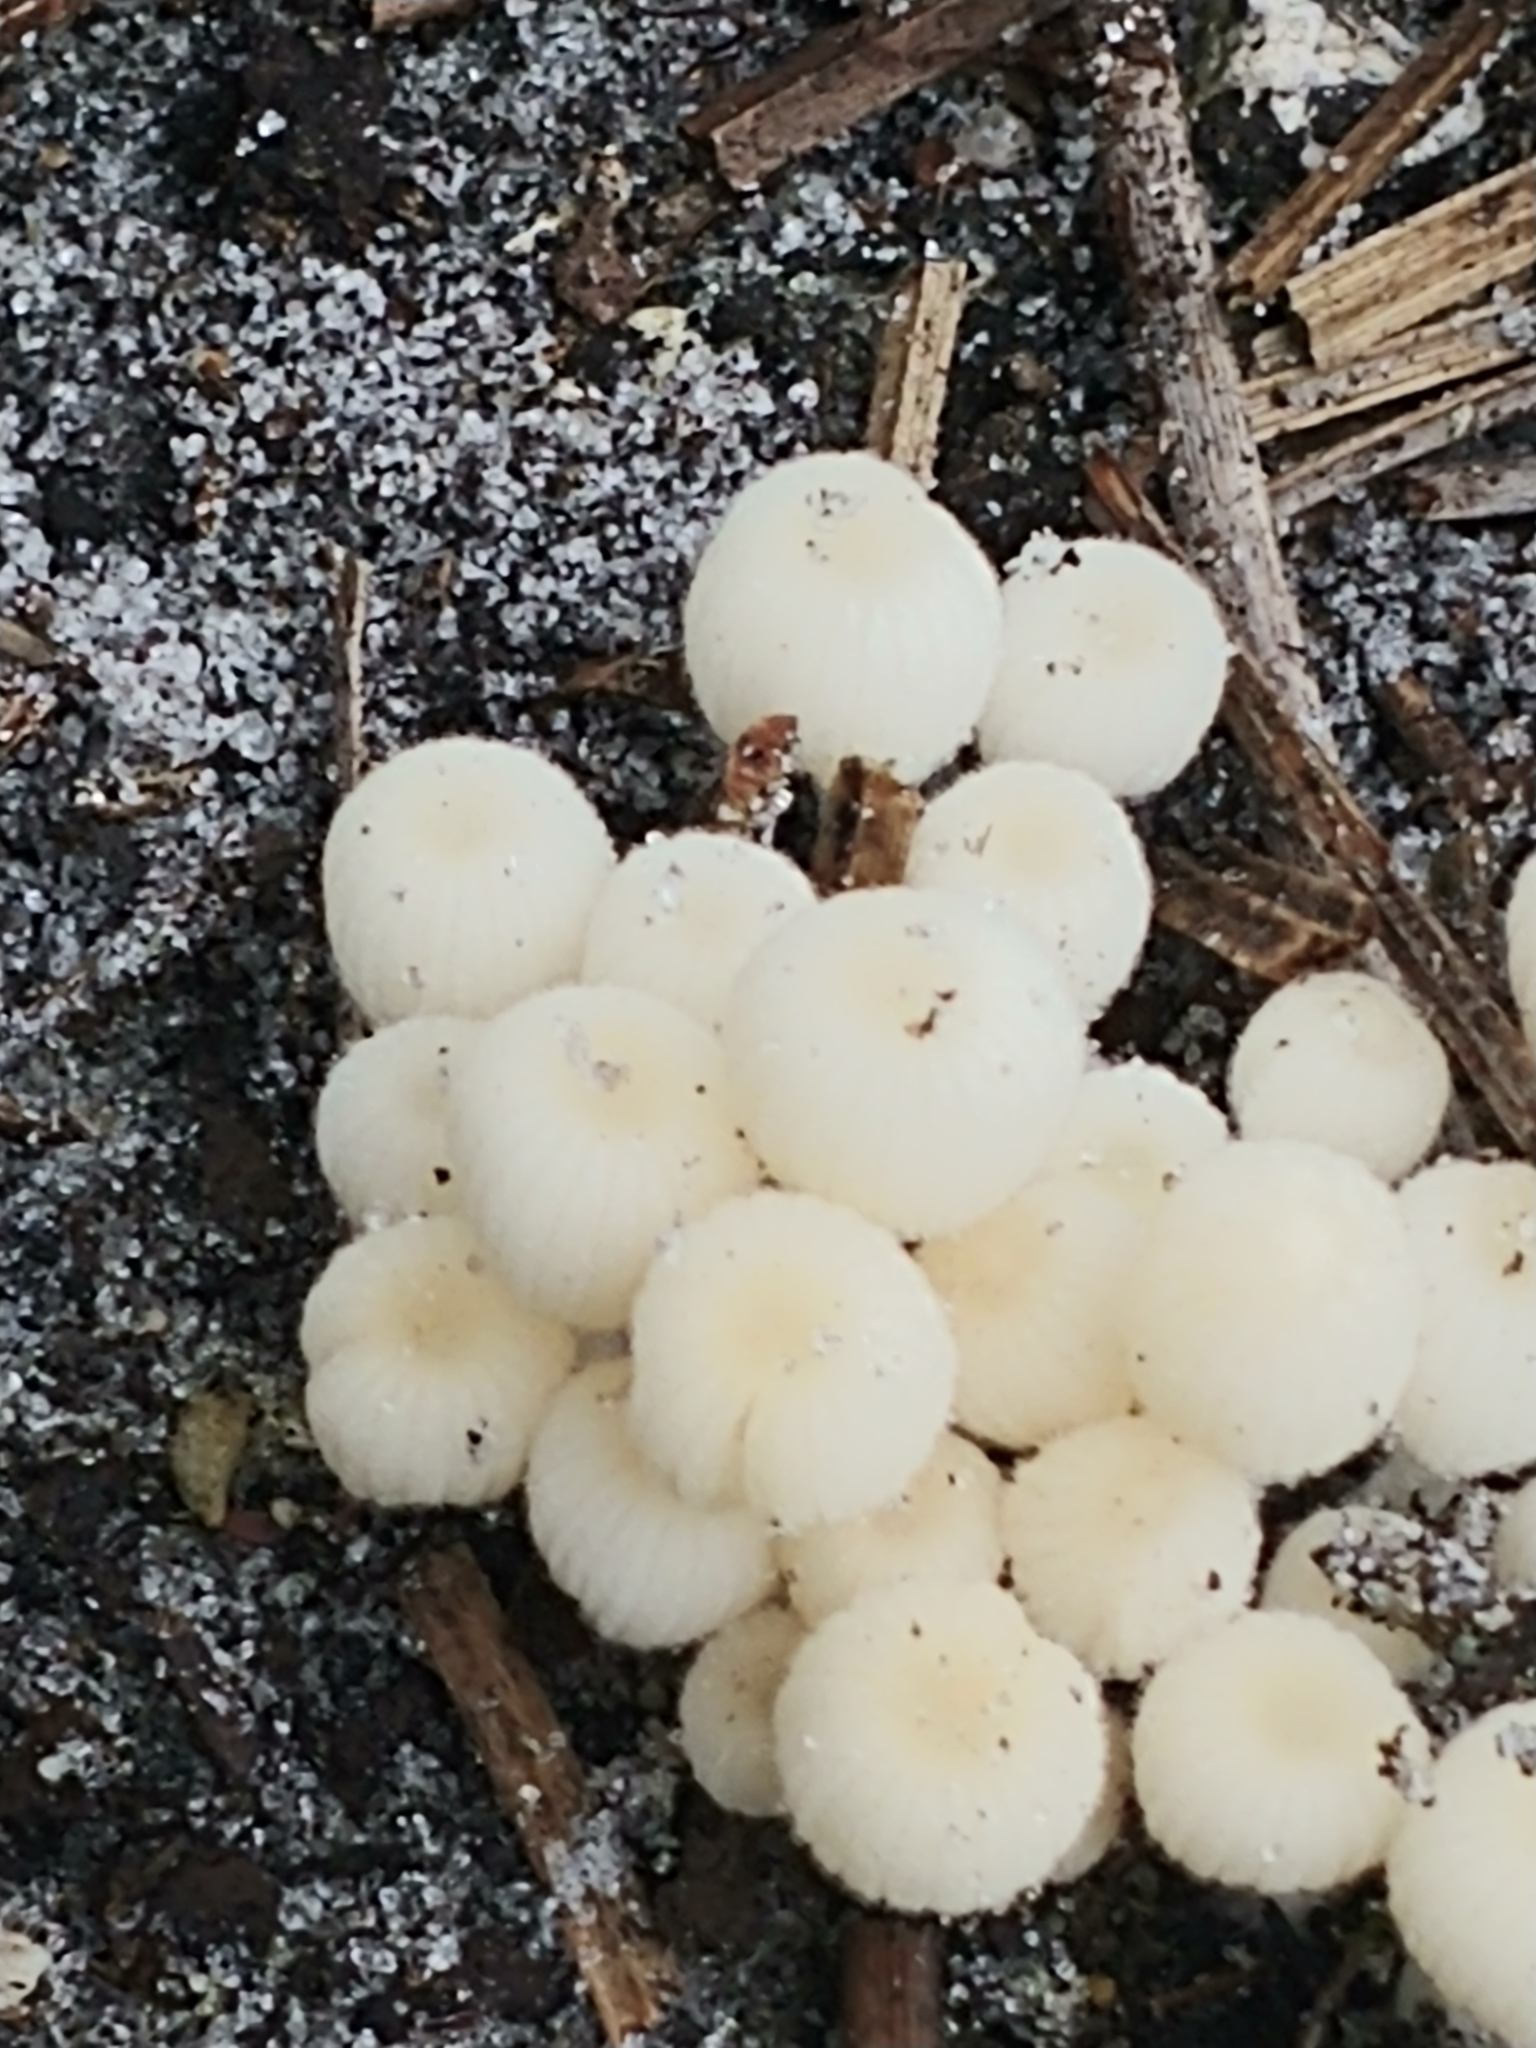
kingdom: Fungi
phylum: Basidiomycota
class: Agaricomycetes
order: Agaricales
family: Psathyrellaceae
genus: Coprinellus
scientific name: Coprinellus disseminatus
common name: Fairies' bonnets
